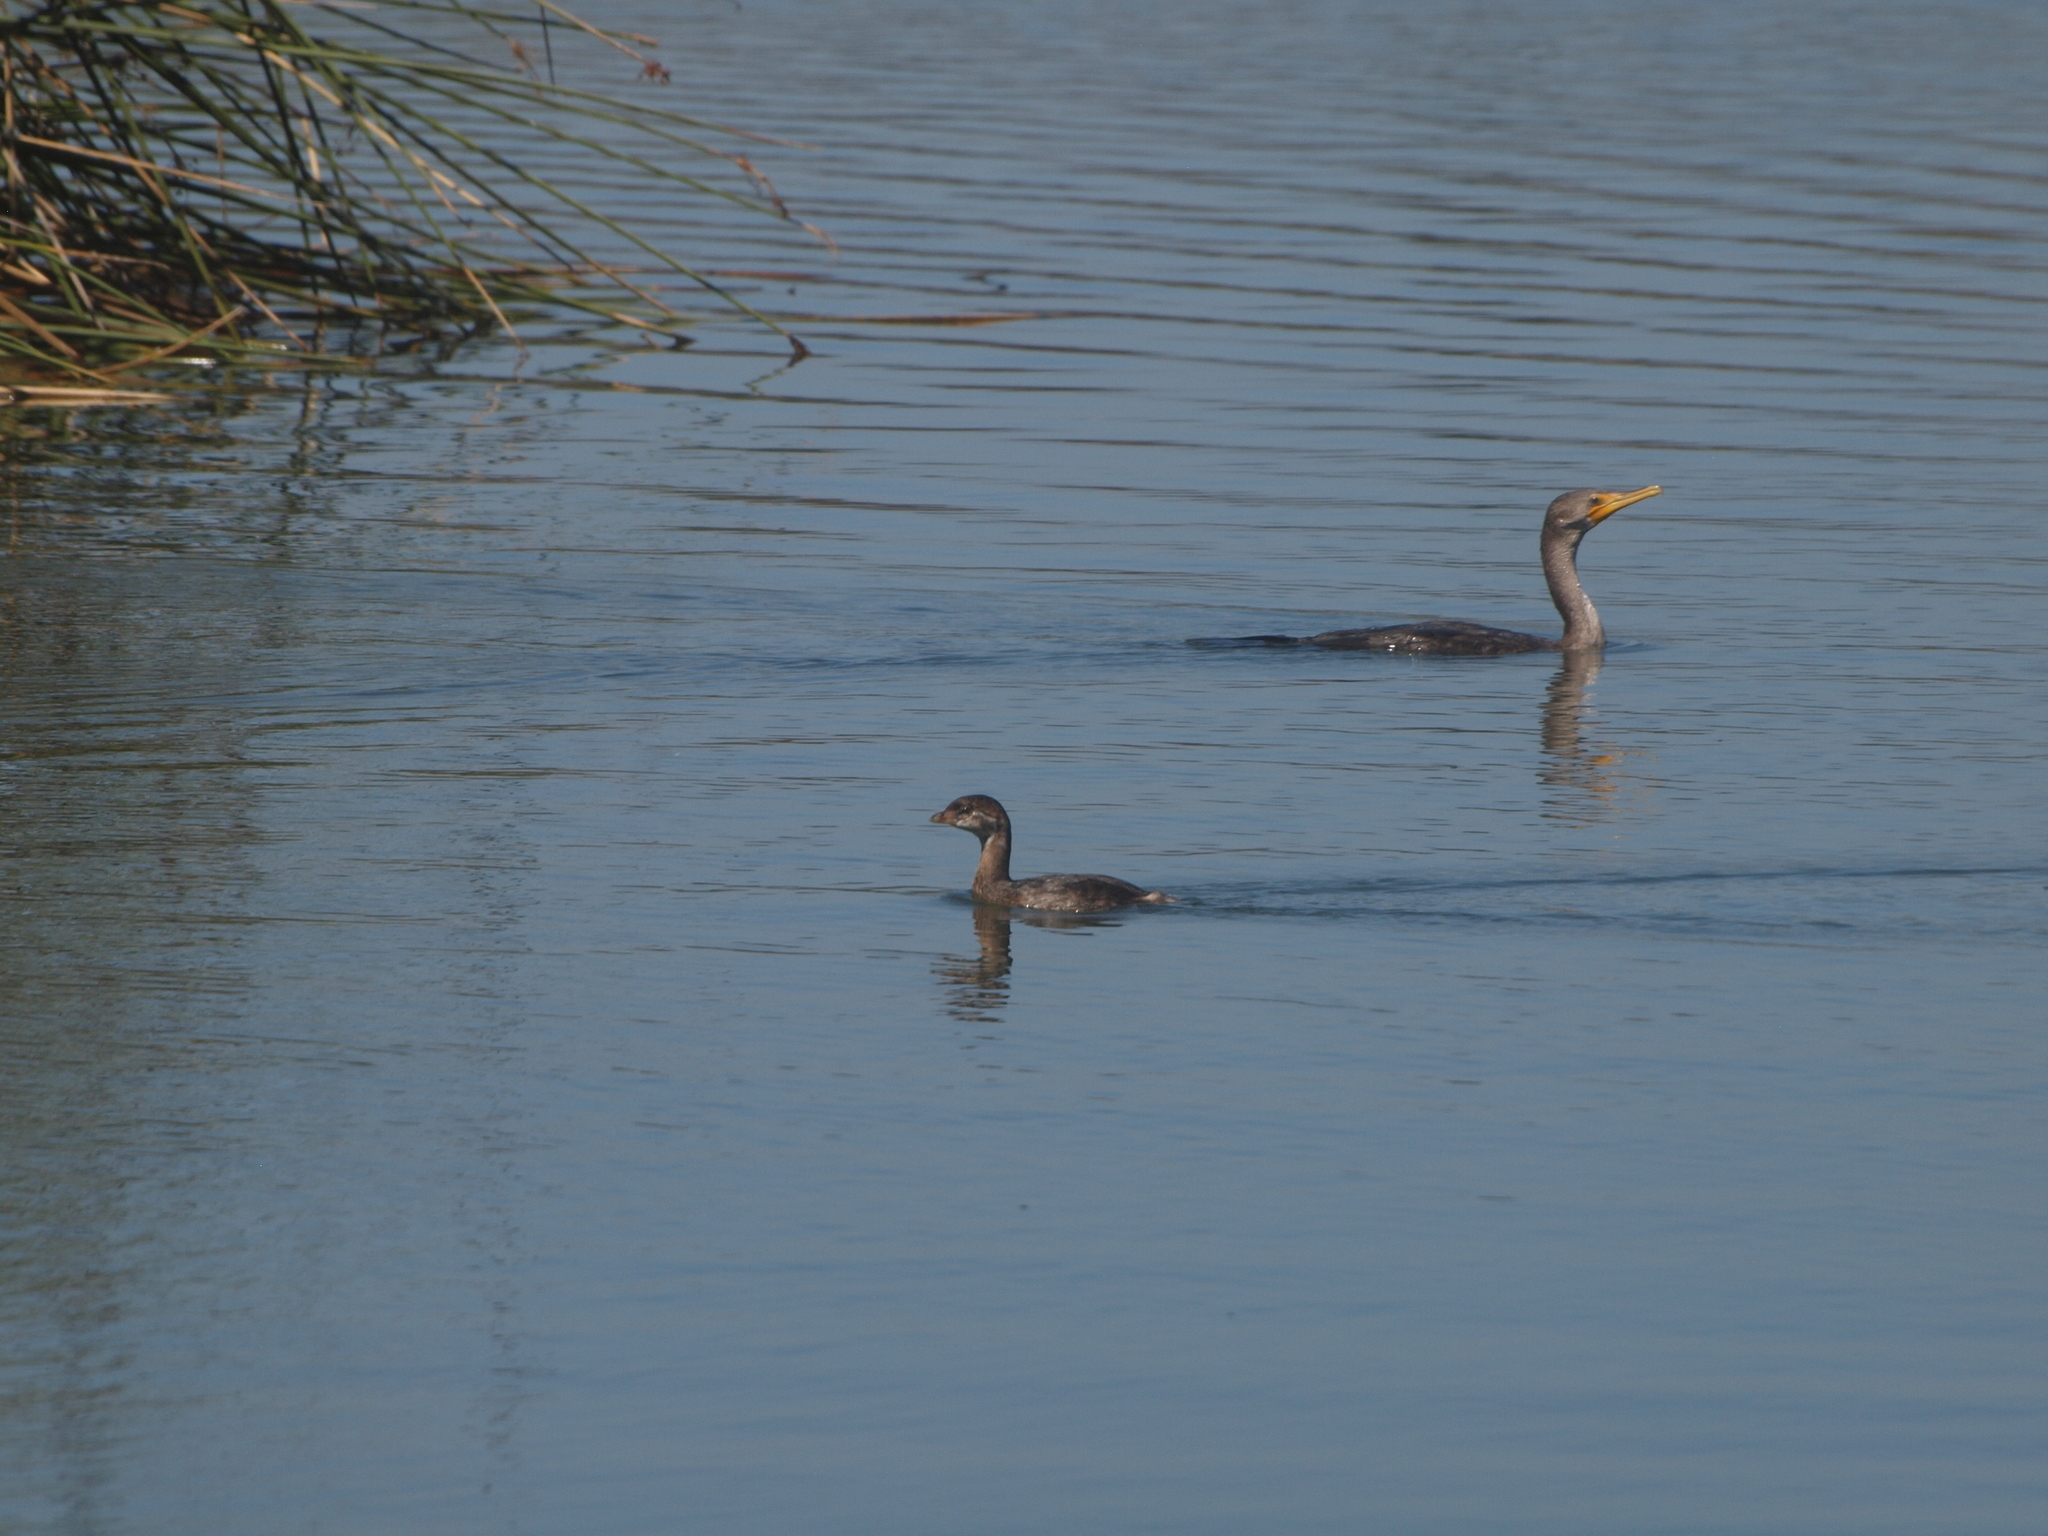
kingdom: Animalia
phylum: Chordata
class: Aves
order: Podicipediformes
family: Podicipedidae
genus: Podilymbus
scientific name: Podilymbus podiceps
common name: Pied-billed grebe
